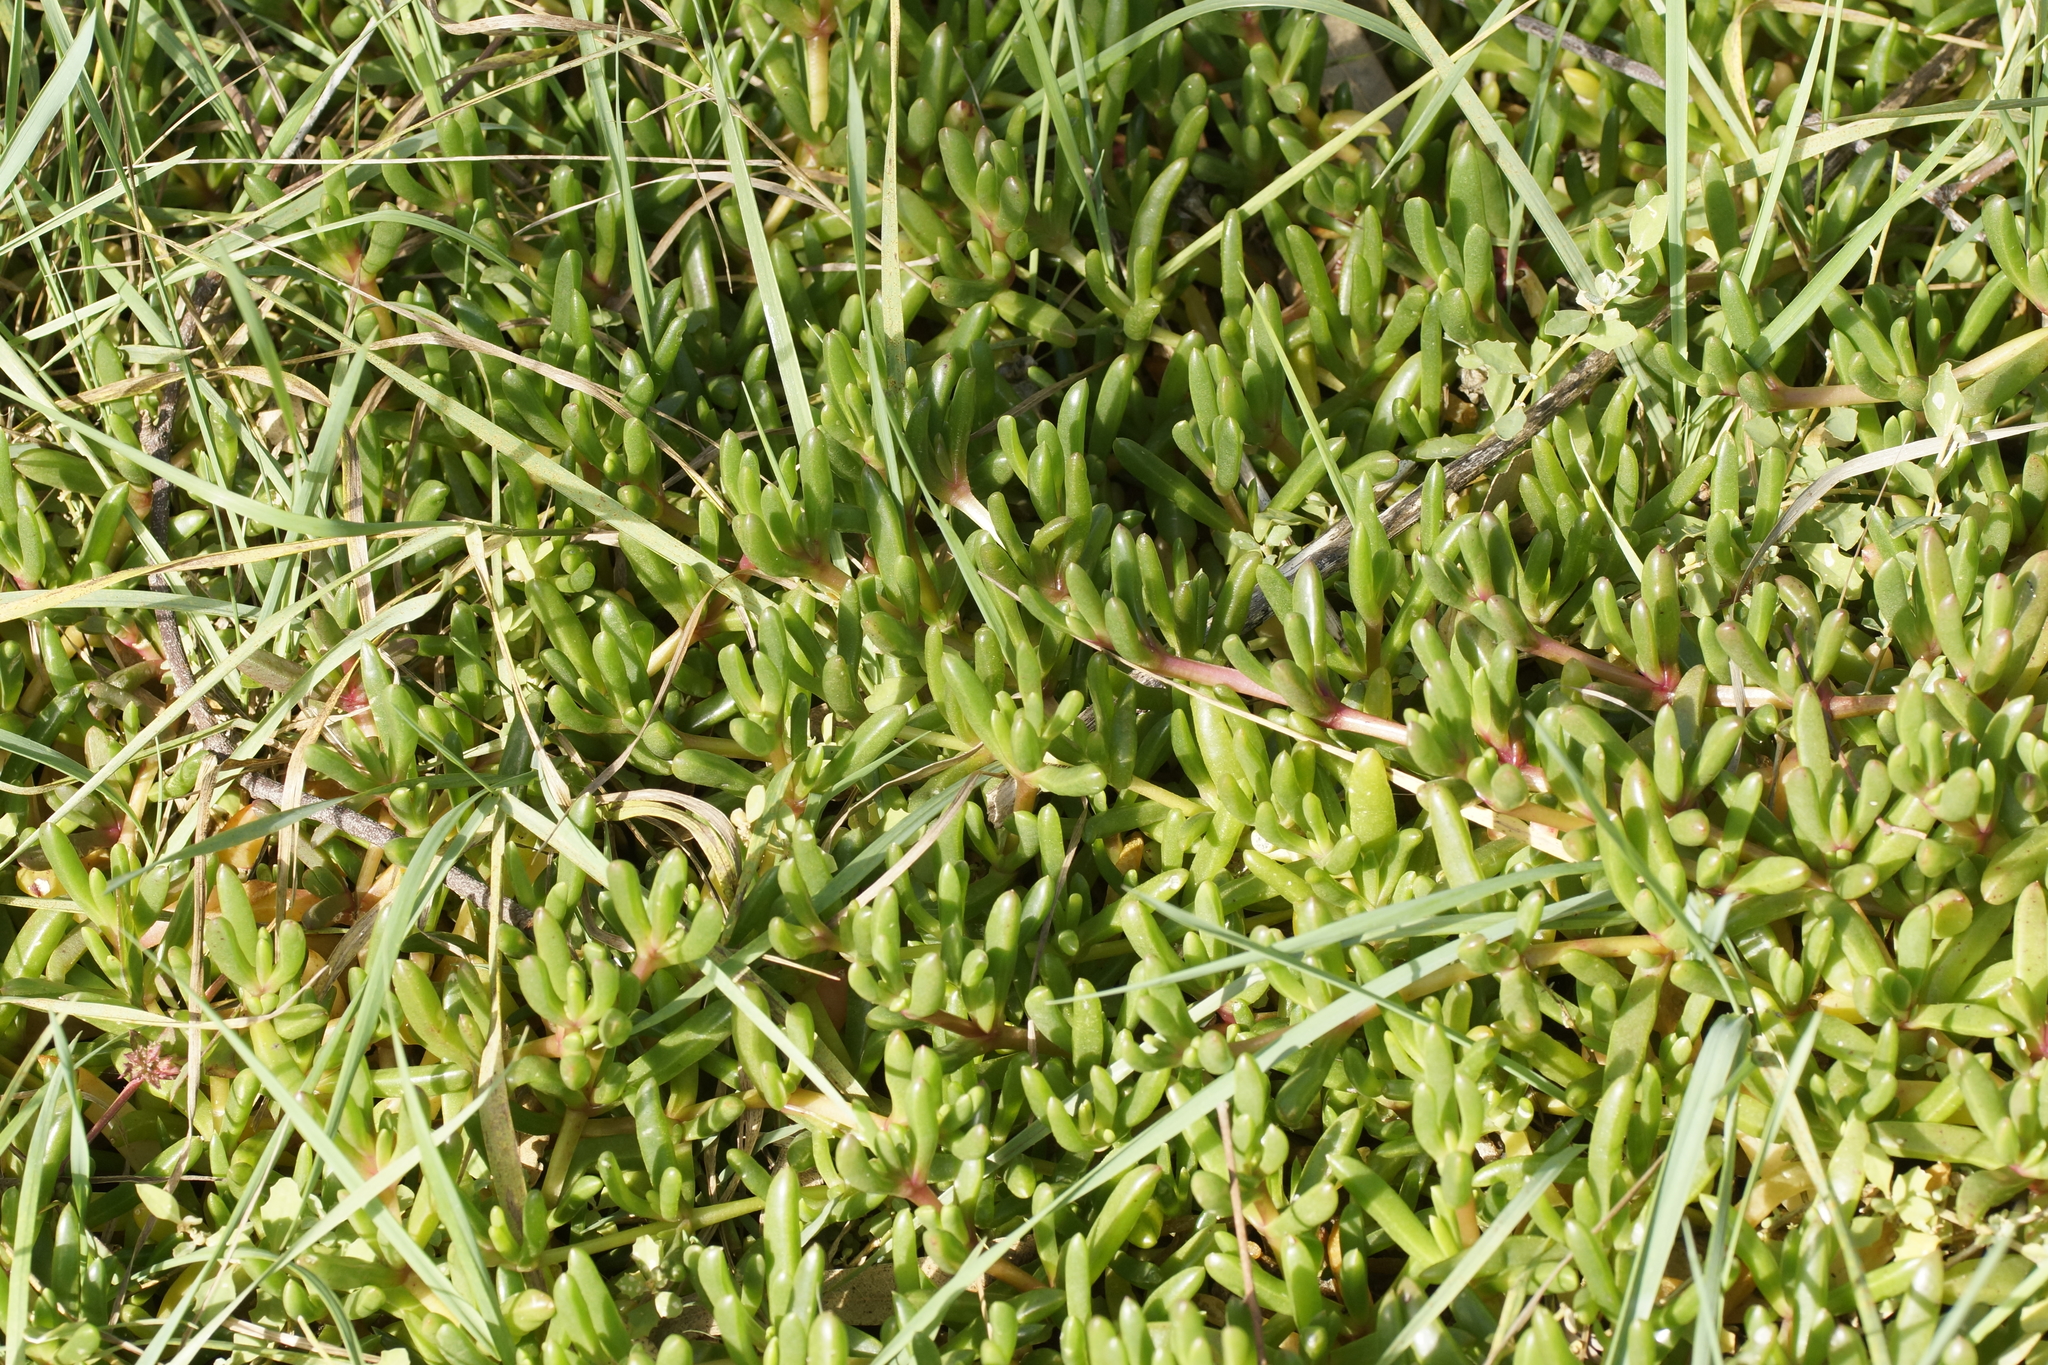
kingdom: Plantae
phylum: Tracheophyta
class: Magnoliopsida
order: Caryophyllales
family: Aizoaceae
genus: Disphyma
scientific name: Disphyma clavellatum
